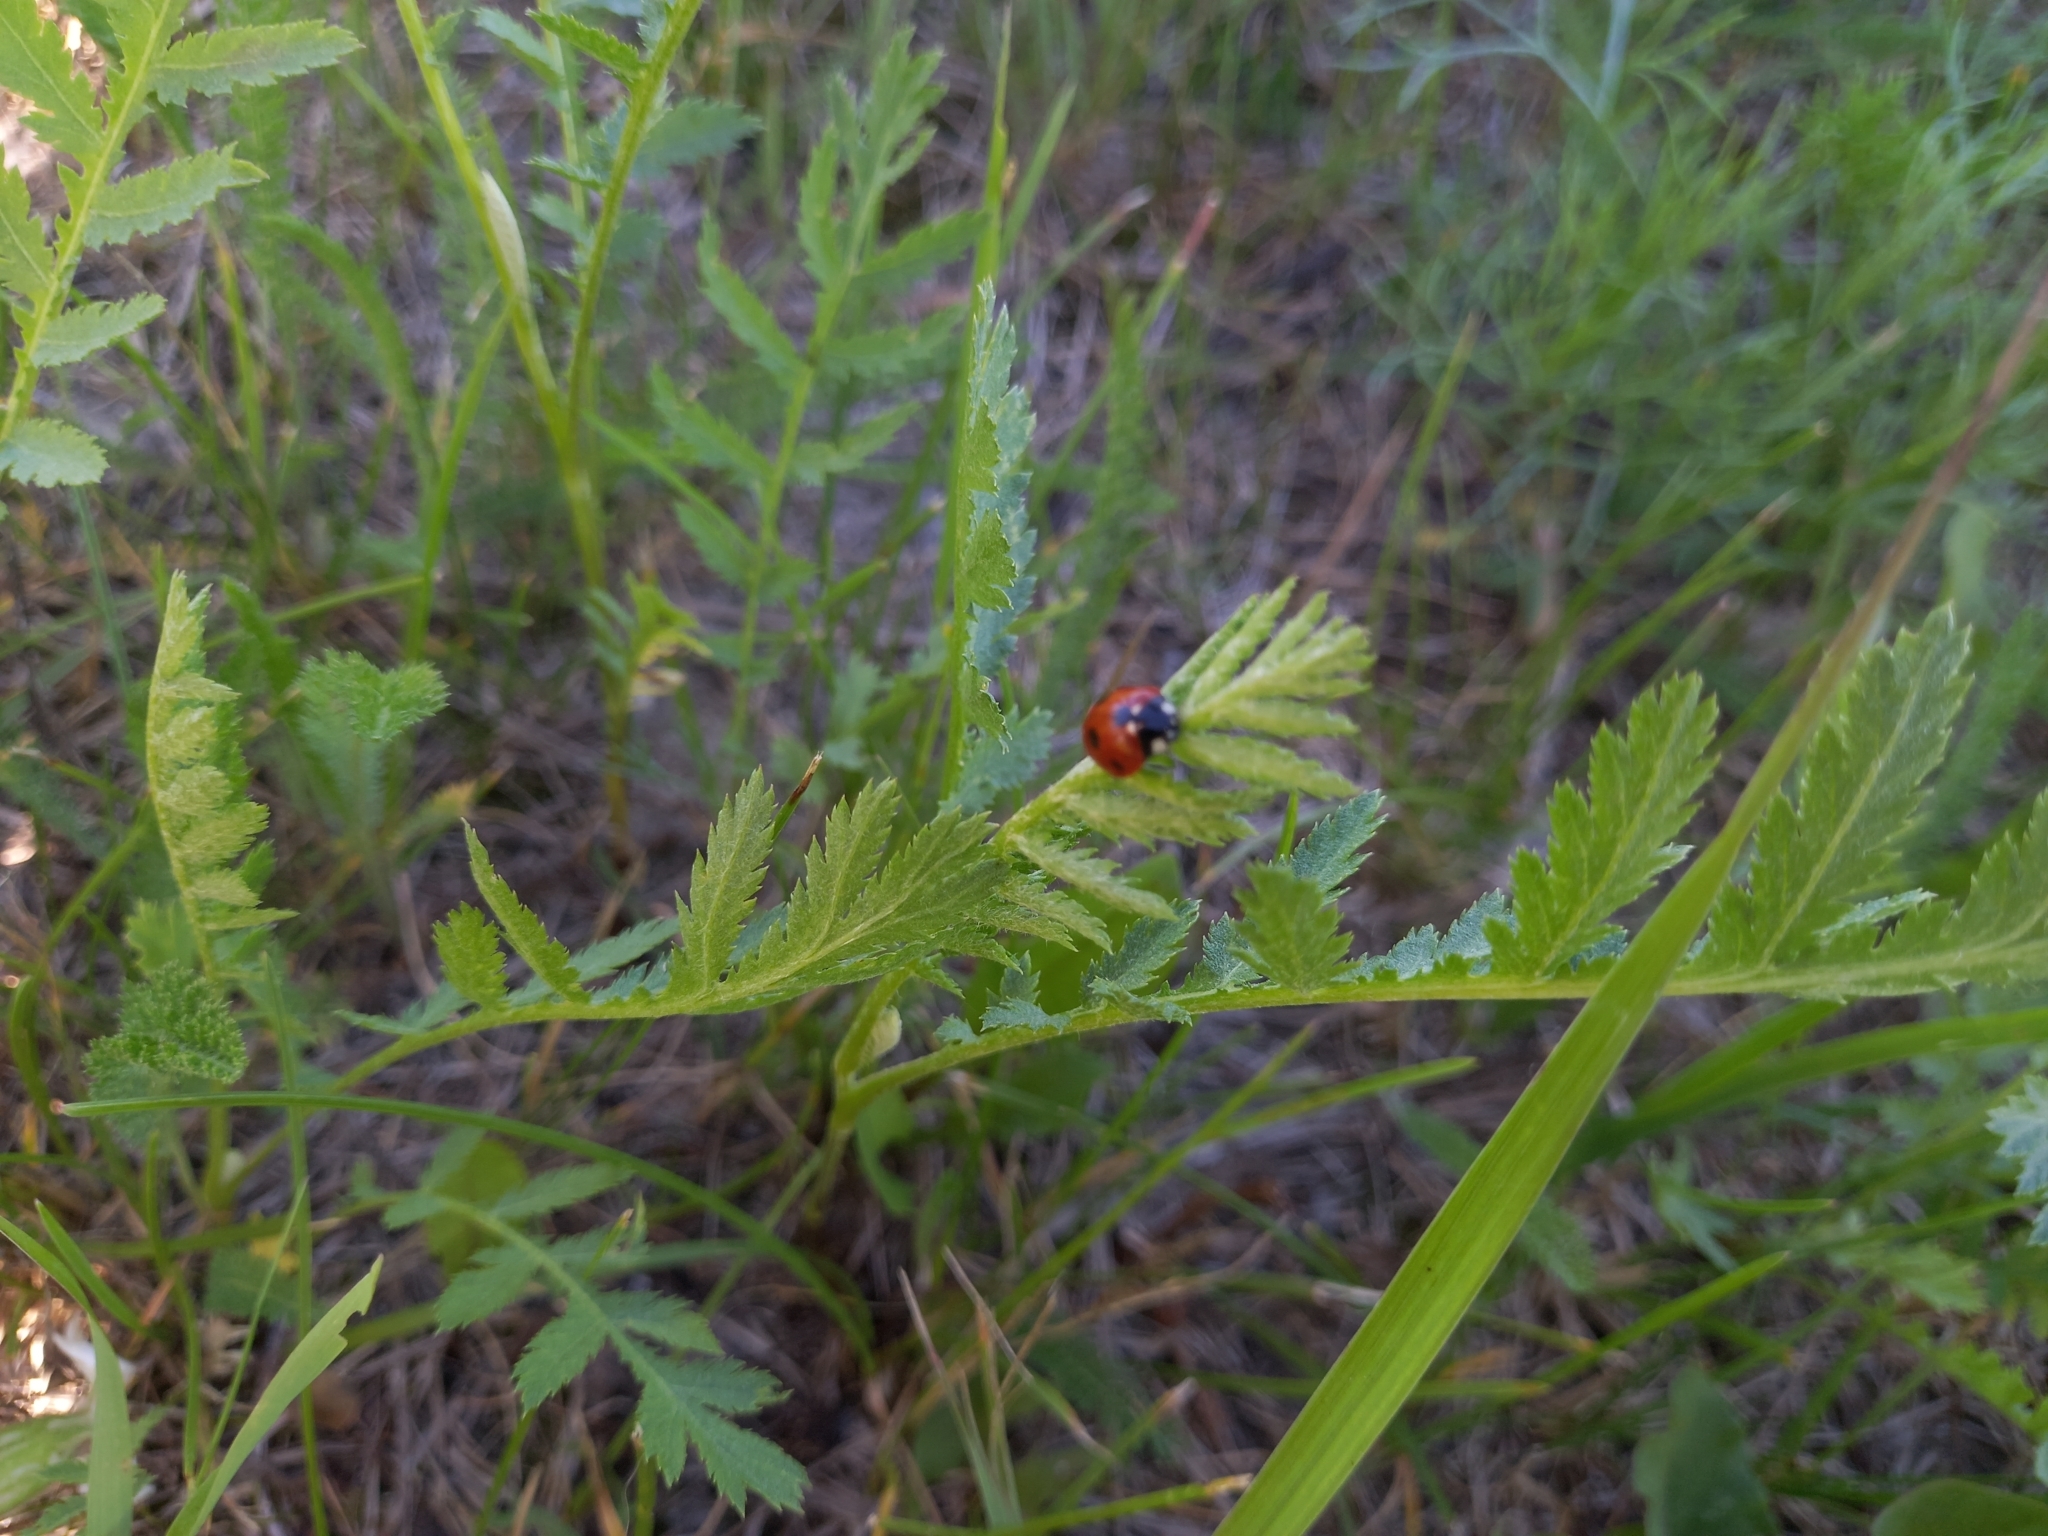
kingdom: Animalia
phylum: Arthropoda
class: Insecta
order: Coleoptera
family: Coccinellidae
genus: Coccinella
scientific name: Coccinella septempunctata
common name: Sevenspotted lady beetle
